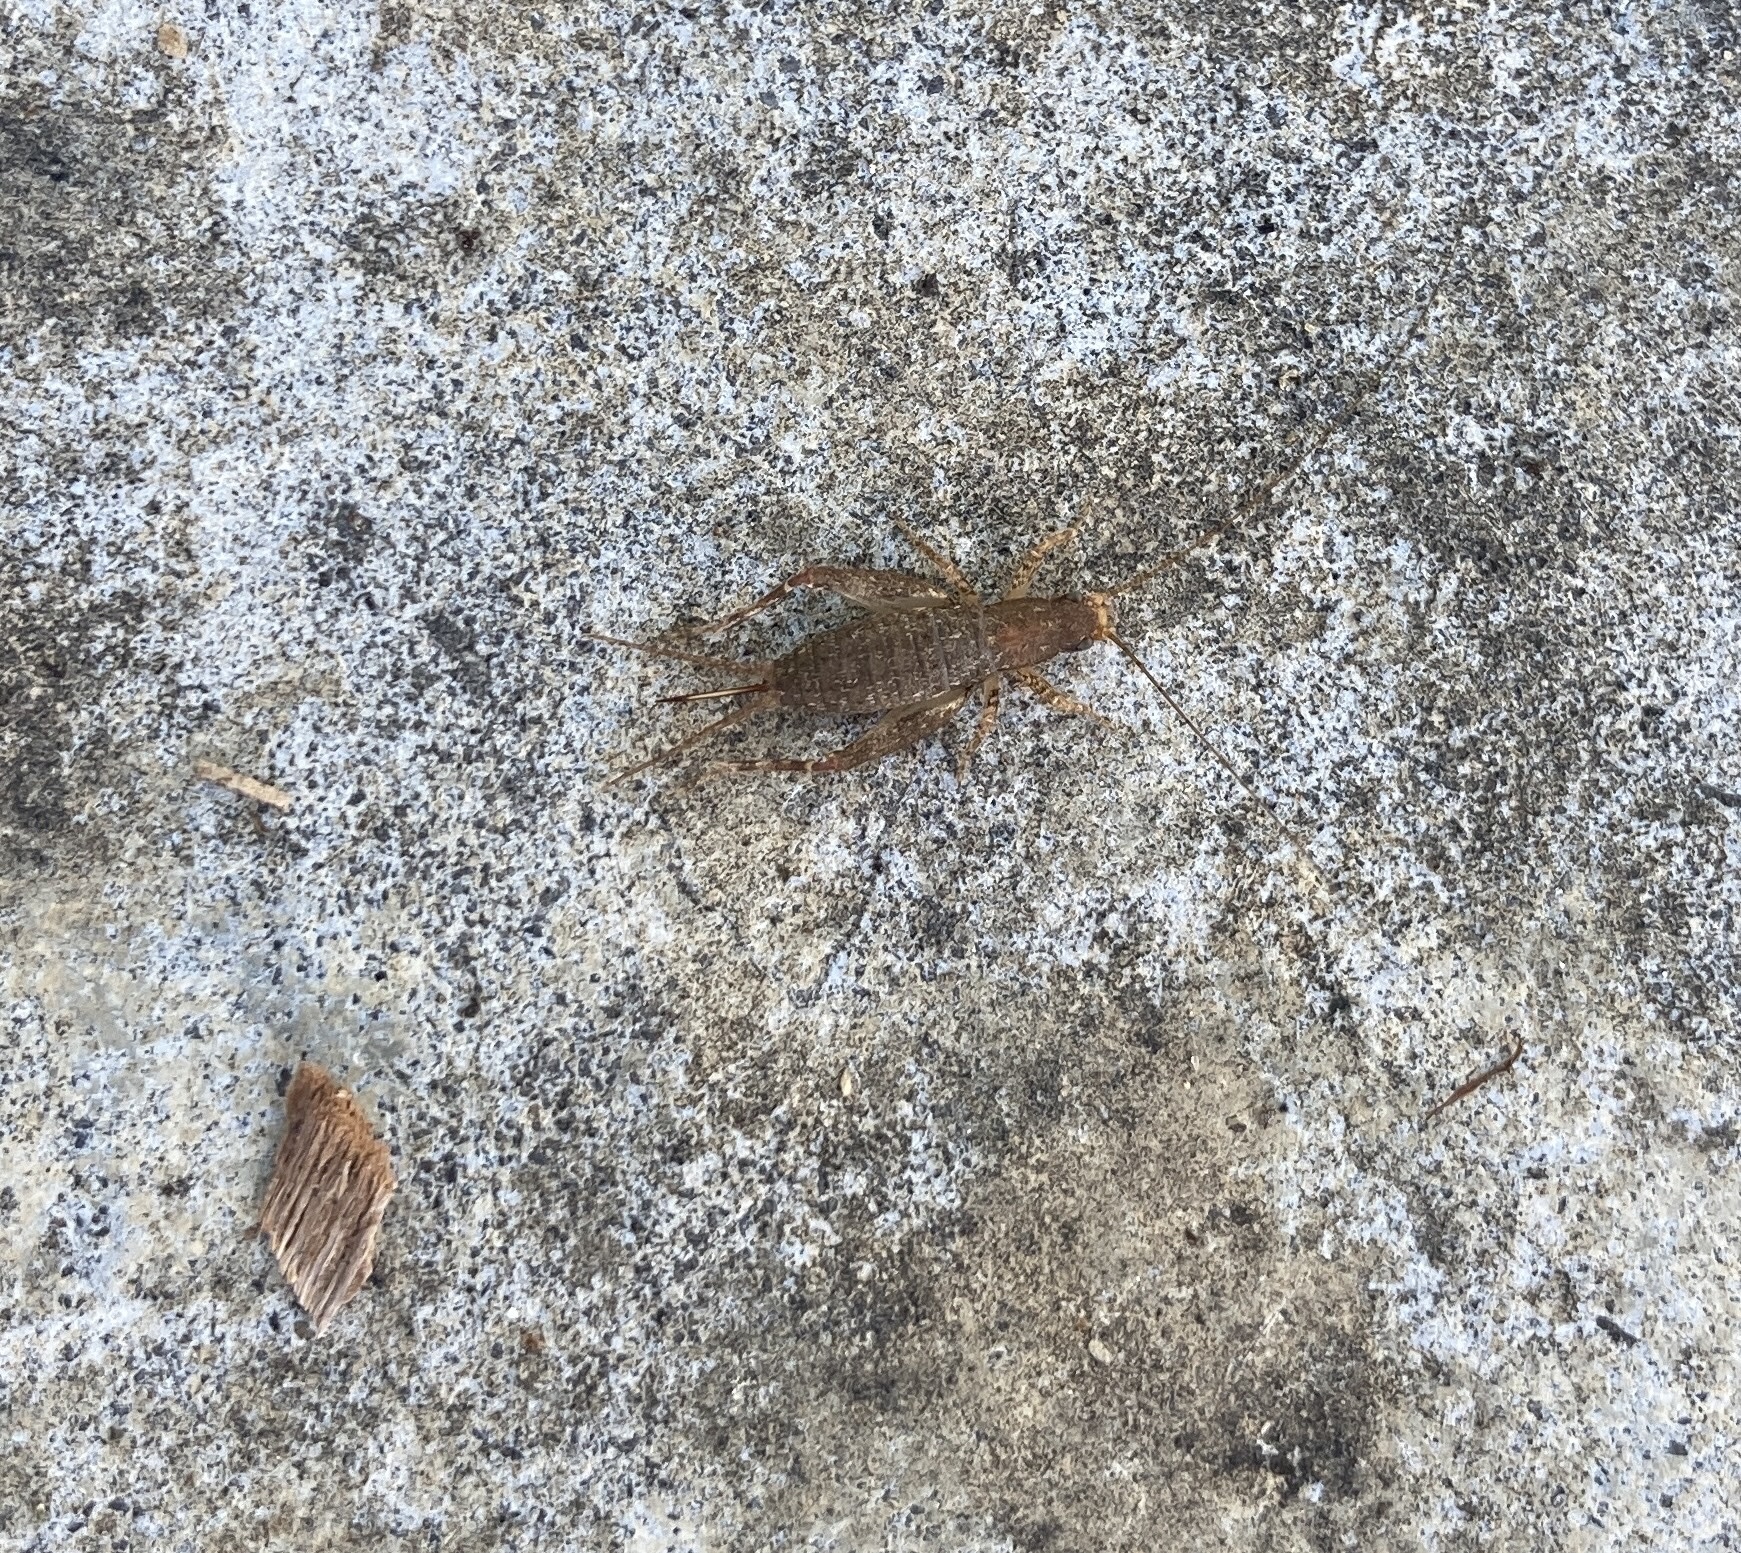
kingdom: Animalia
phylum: Arthropoda
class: Insecta
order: Orthoptera
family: Mogoplistidae
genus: Ornebius
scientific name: Ornebius aperta
